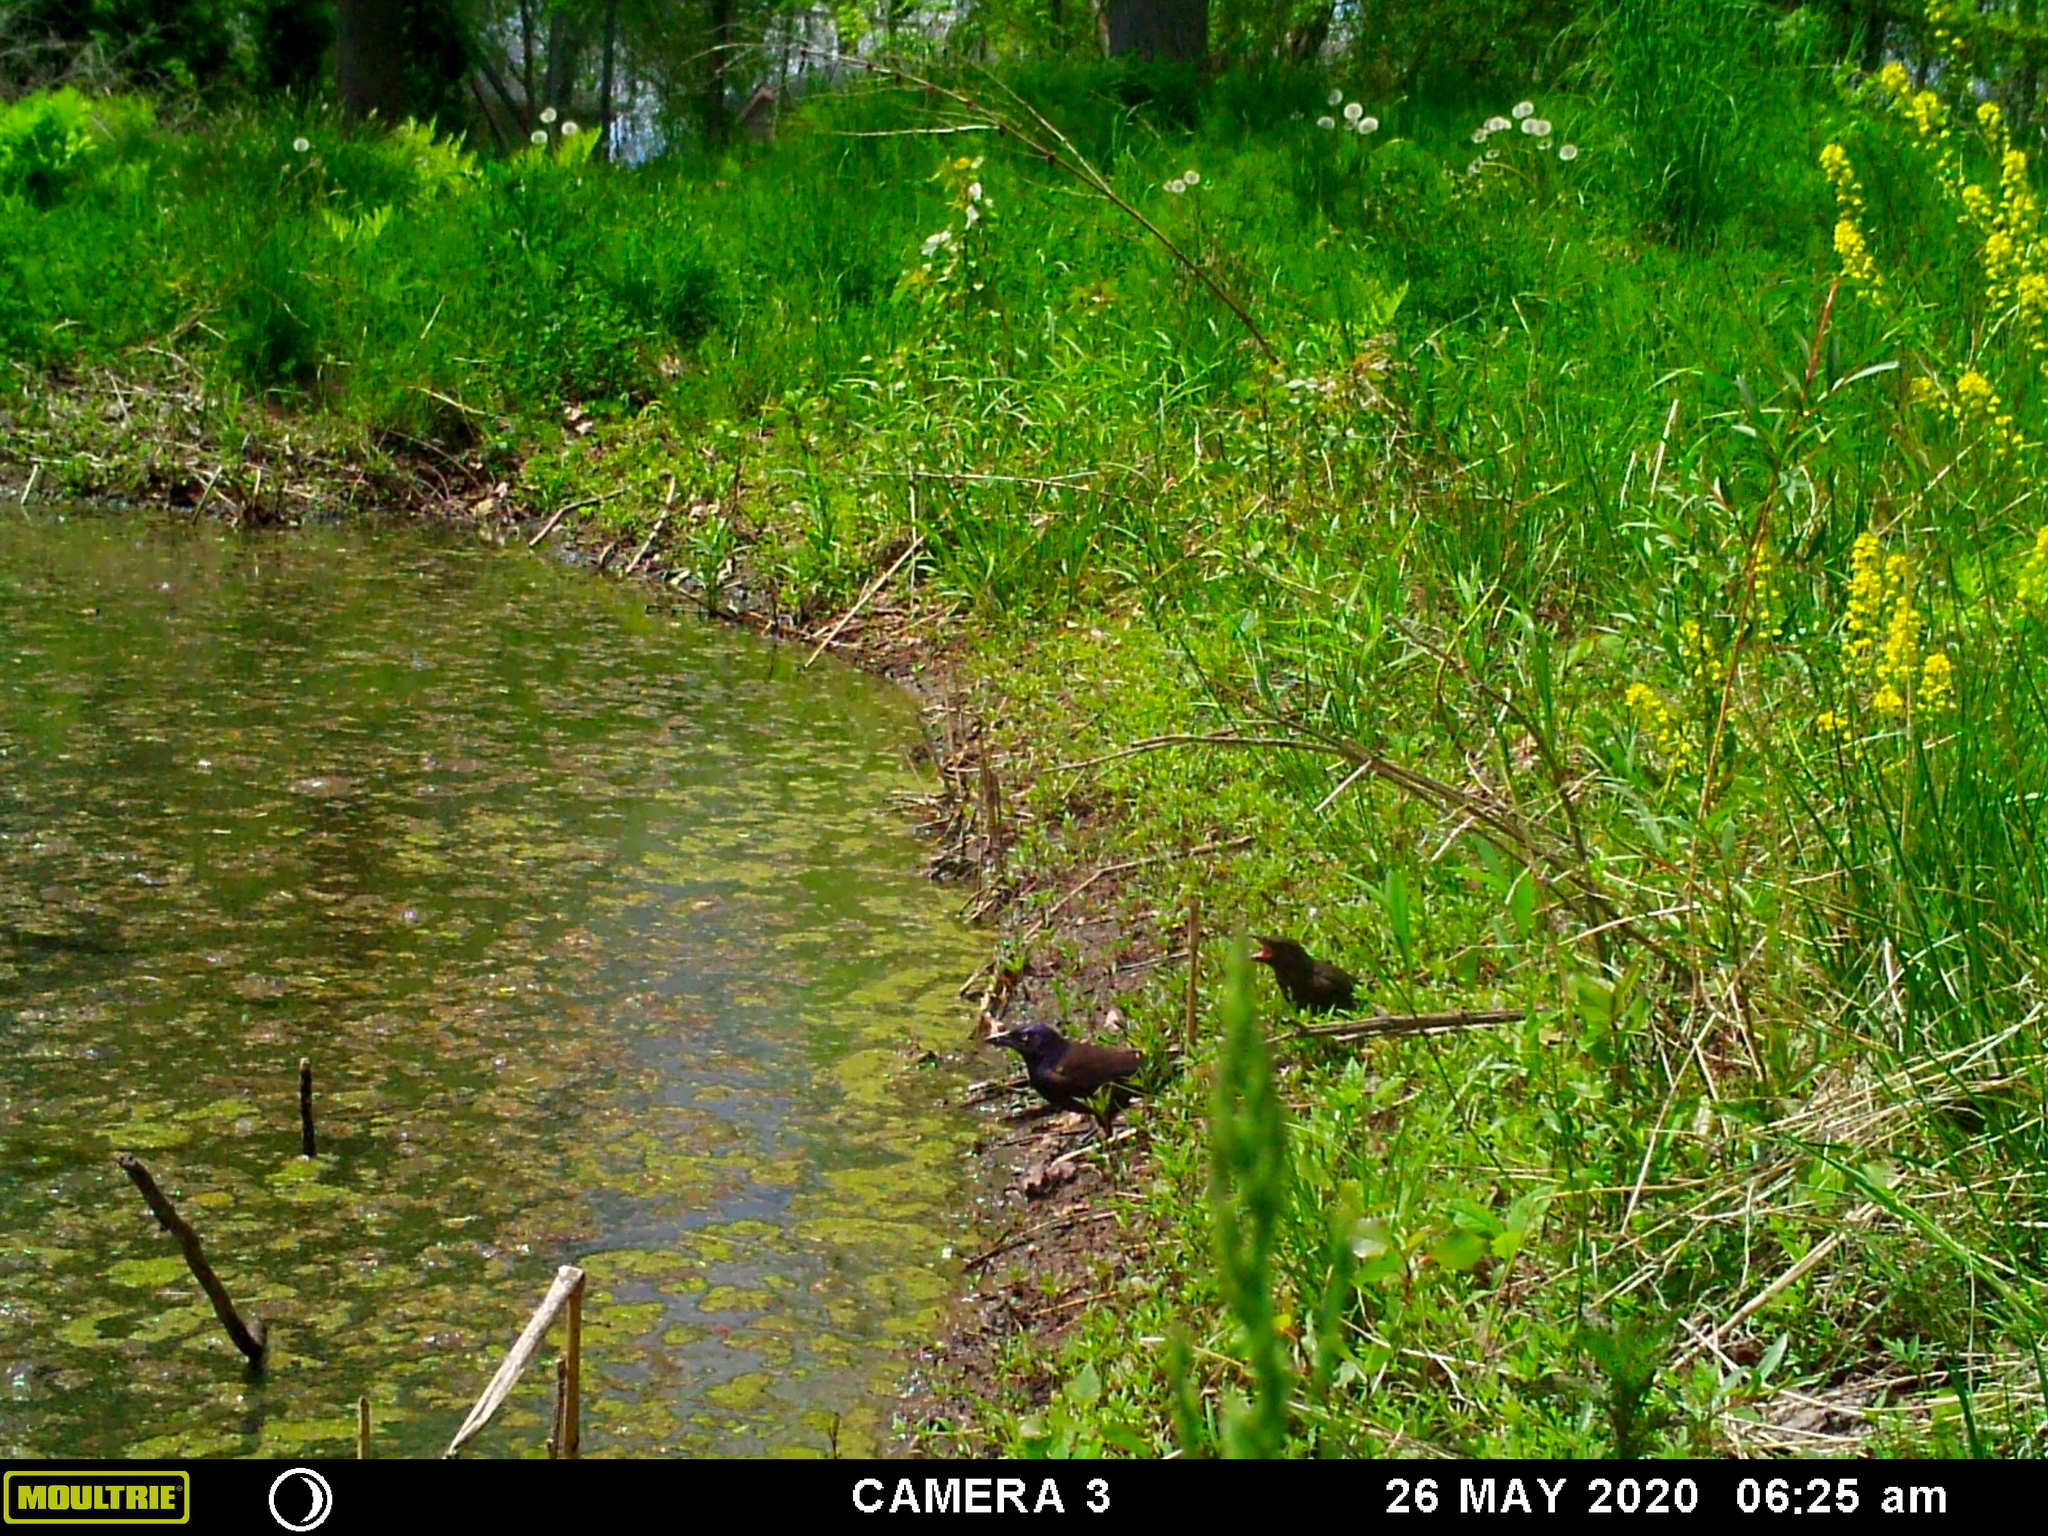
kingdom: Animalia
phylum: Chordata
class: Aves
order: Passeriformes
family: Icteridae
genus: Quiscalus
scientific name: Quiscalus quiscula
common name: Common grackle
